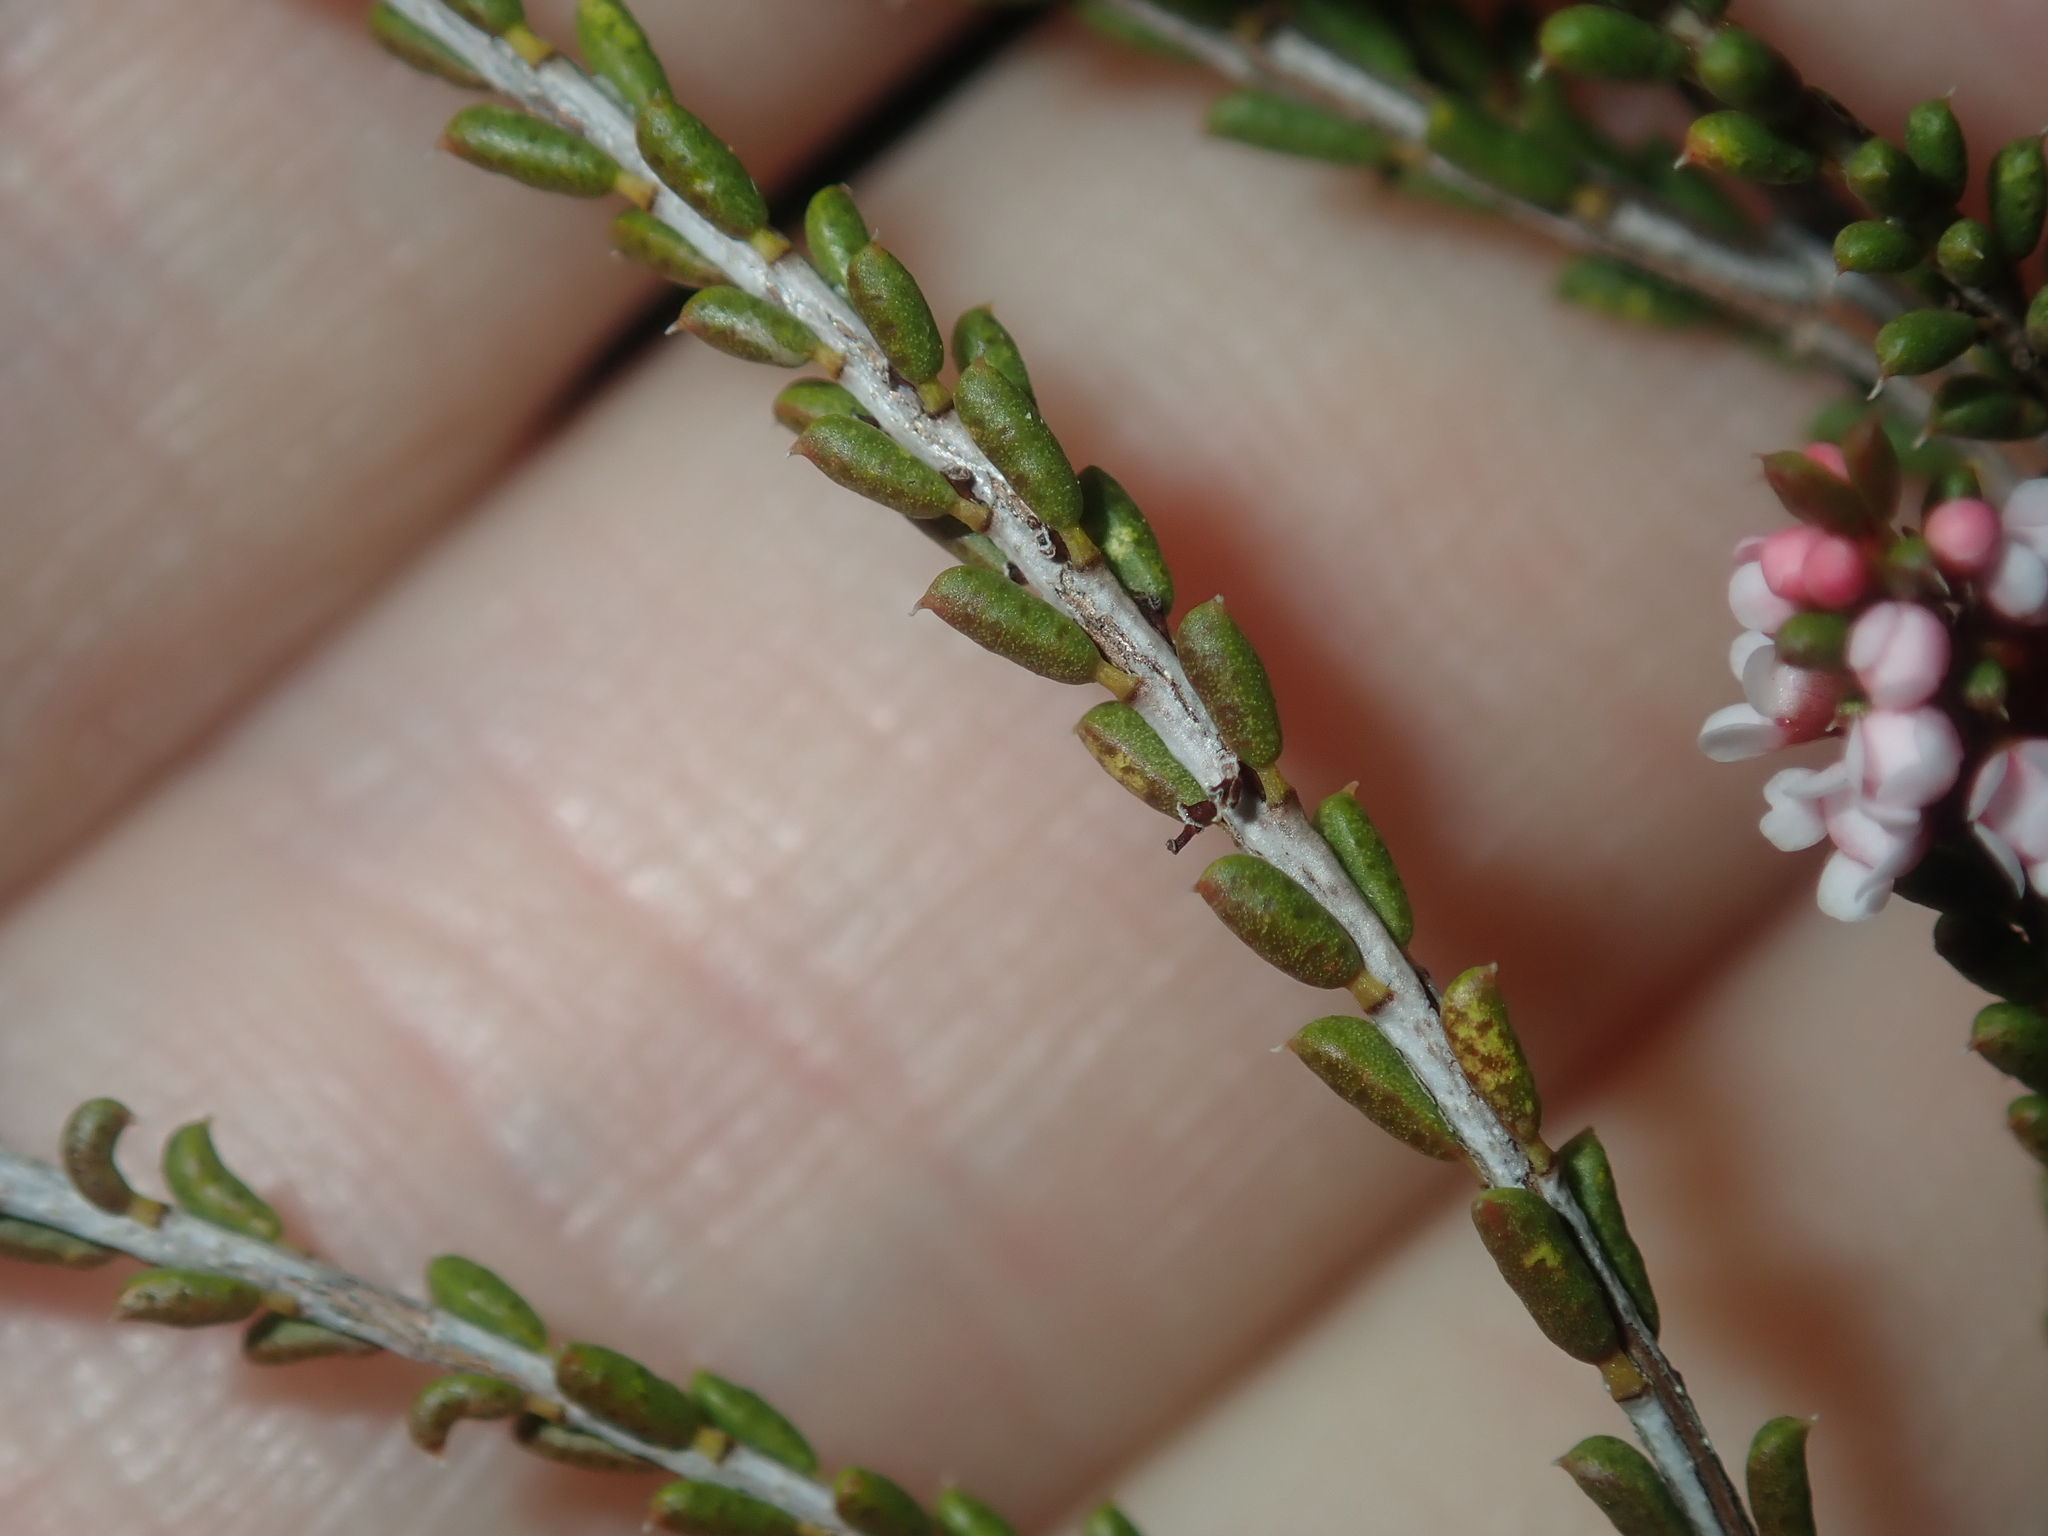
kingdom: Plantae
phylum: Tracheophyta
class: Magnoliopsida
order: Myrtales
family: Myrtaceae
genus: Thryptomene
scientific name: Thryptomene kochii
